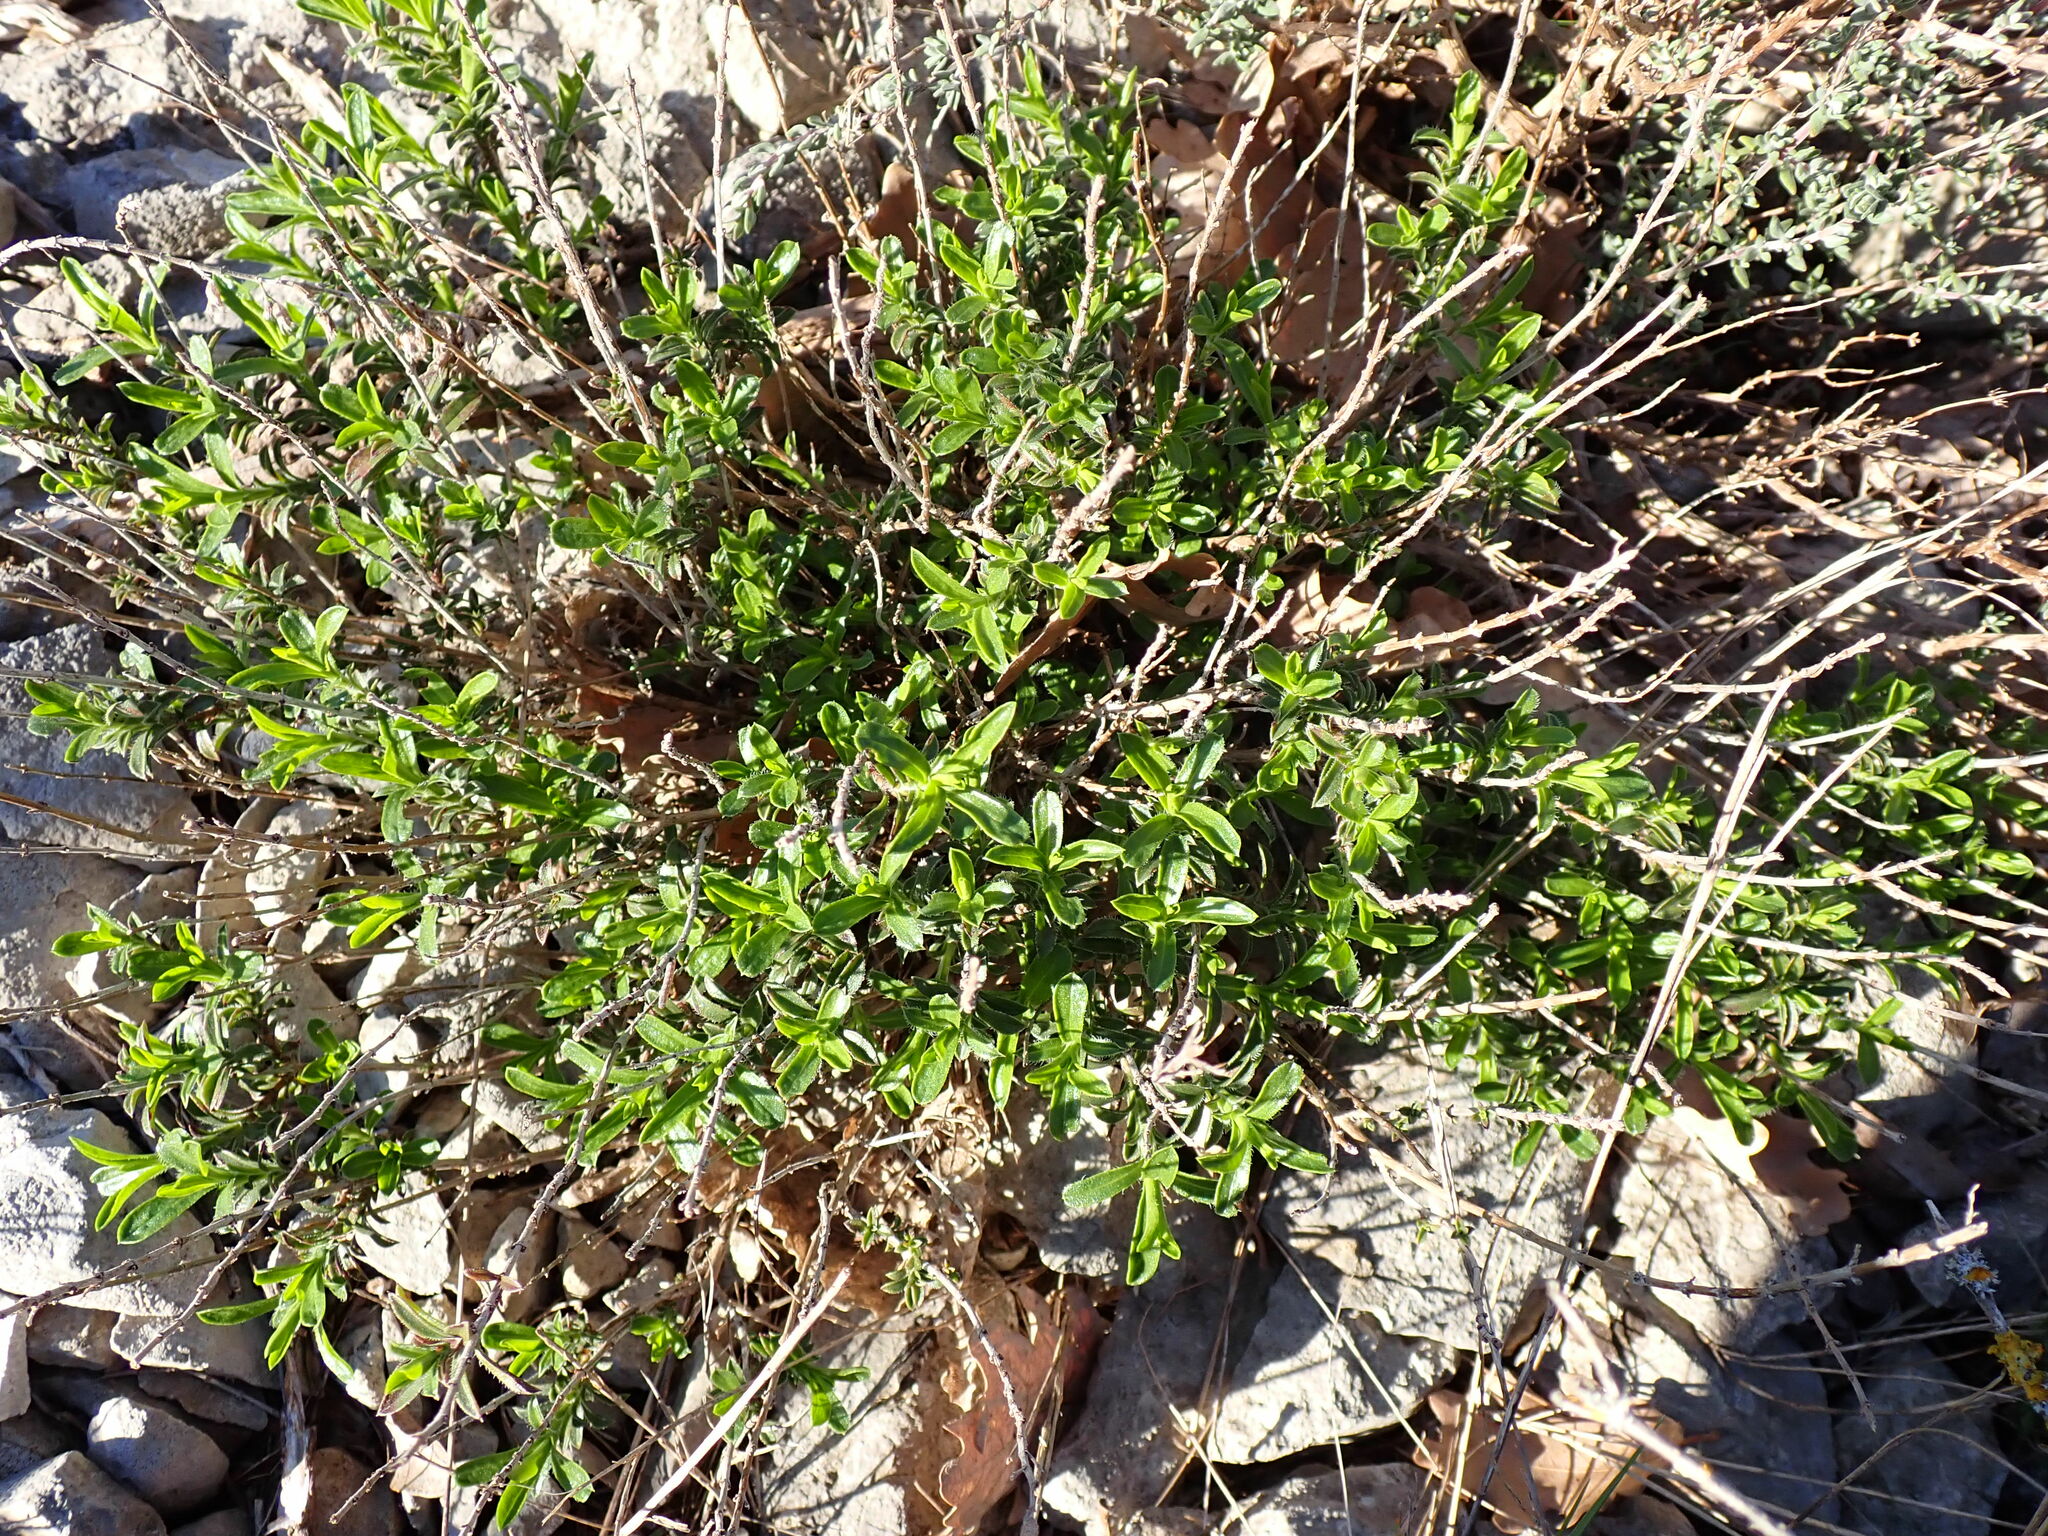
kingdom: Plantae
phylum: Tracheophyta
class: Magnoliopsida
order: Lamiales
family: Lamiaceae
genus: Satureja
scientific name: Satureja montana
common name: Winter savory
